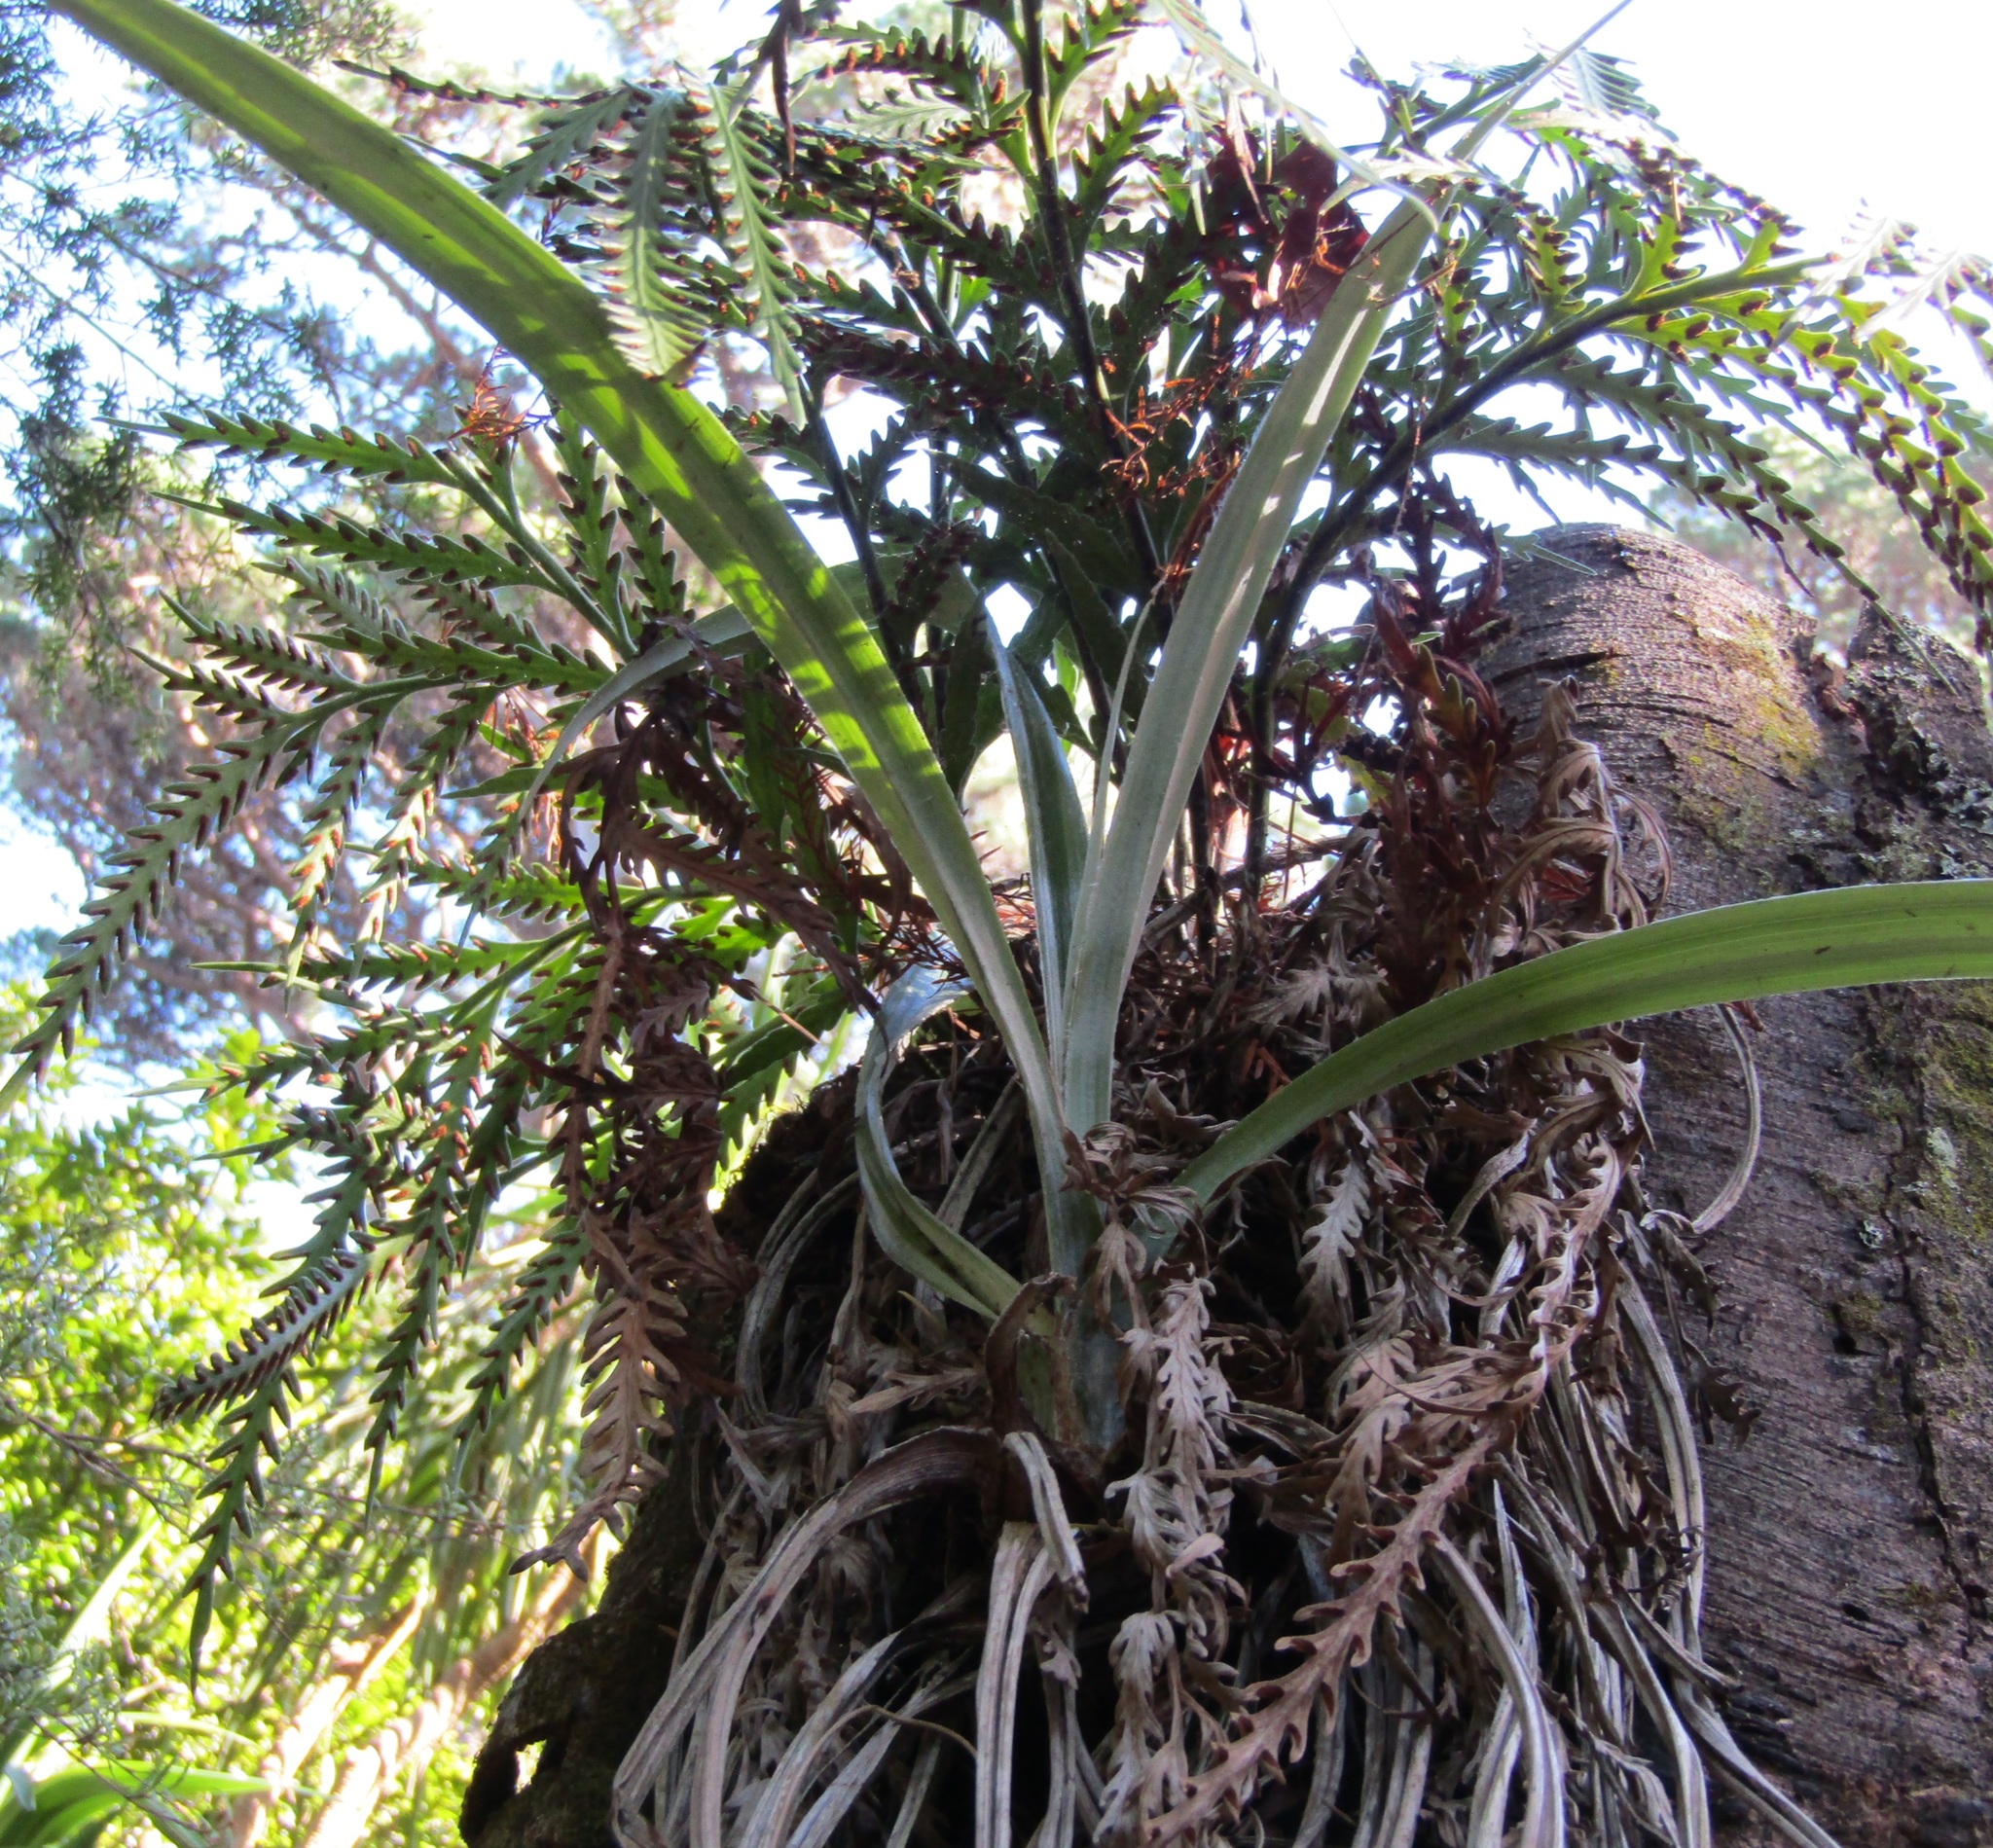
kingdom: Plantae
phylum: Tracheophyta
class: Liliopsida
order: Asparagales
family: Asteliaceae
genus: Astelia
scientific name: Astelia solandri
